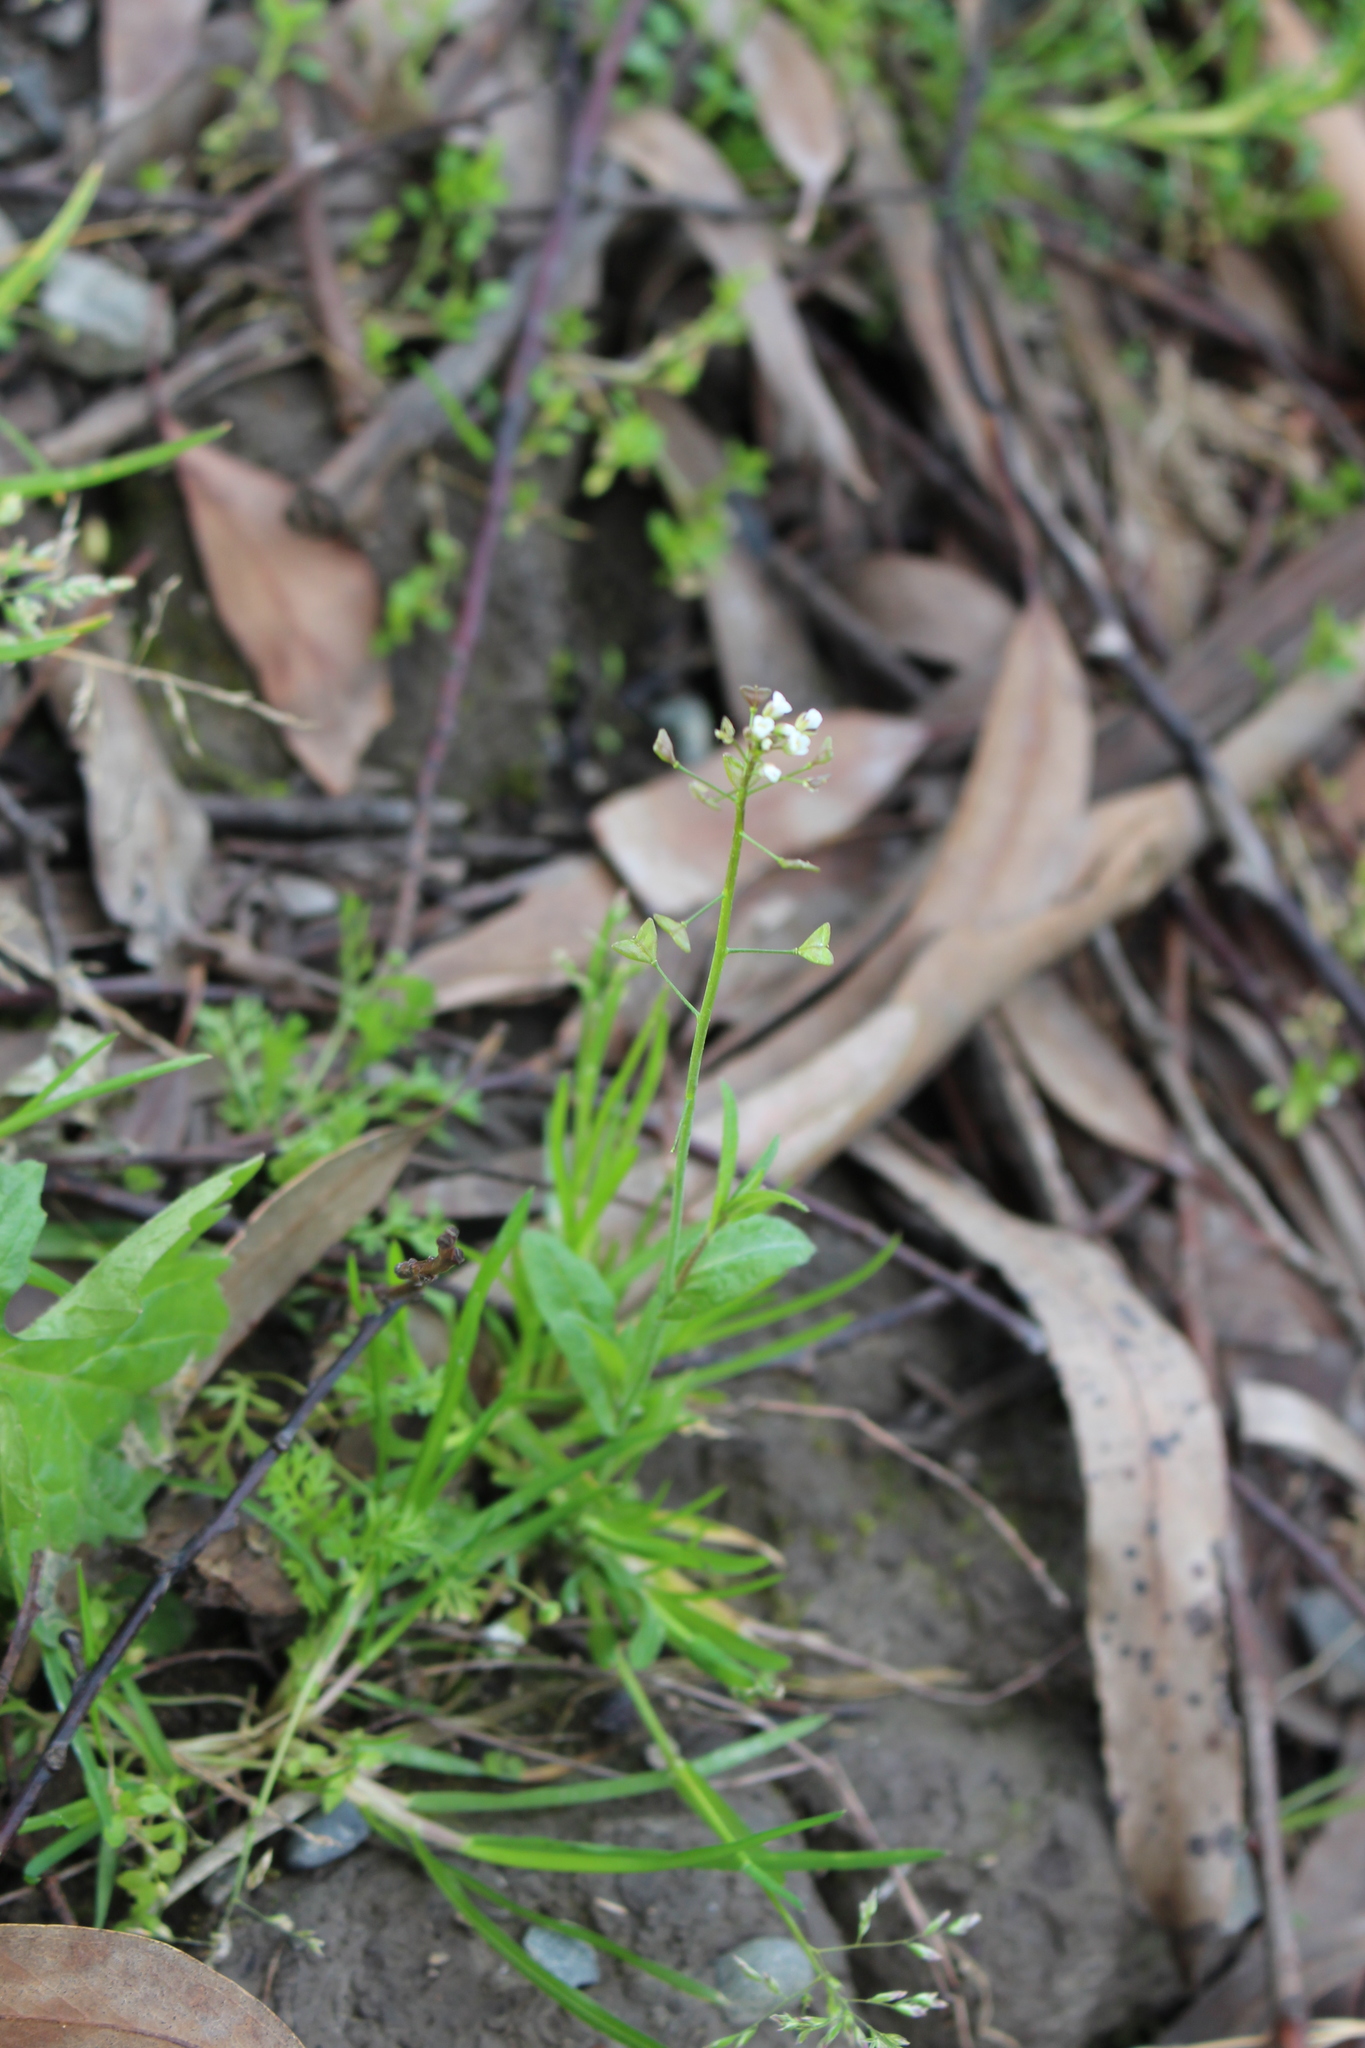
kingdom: Plantae
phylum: Tracheophyta
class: Magnoliopsida
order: Brassicales
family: Brassicaceae
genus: Capsella
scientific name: Capsella bursa-pastoris
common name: Shepherd's purse
